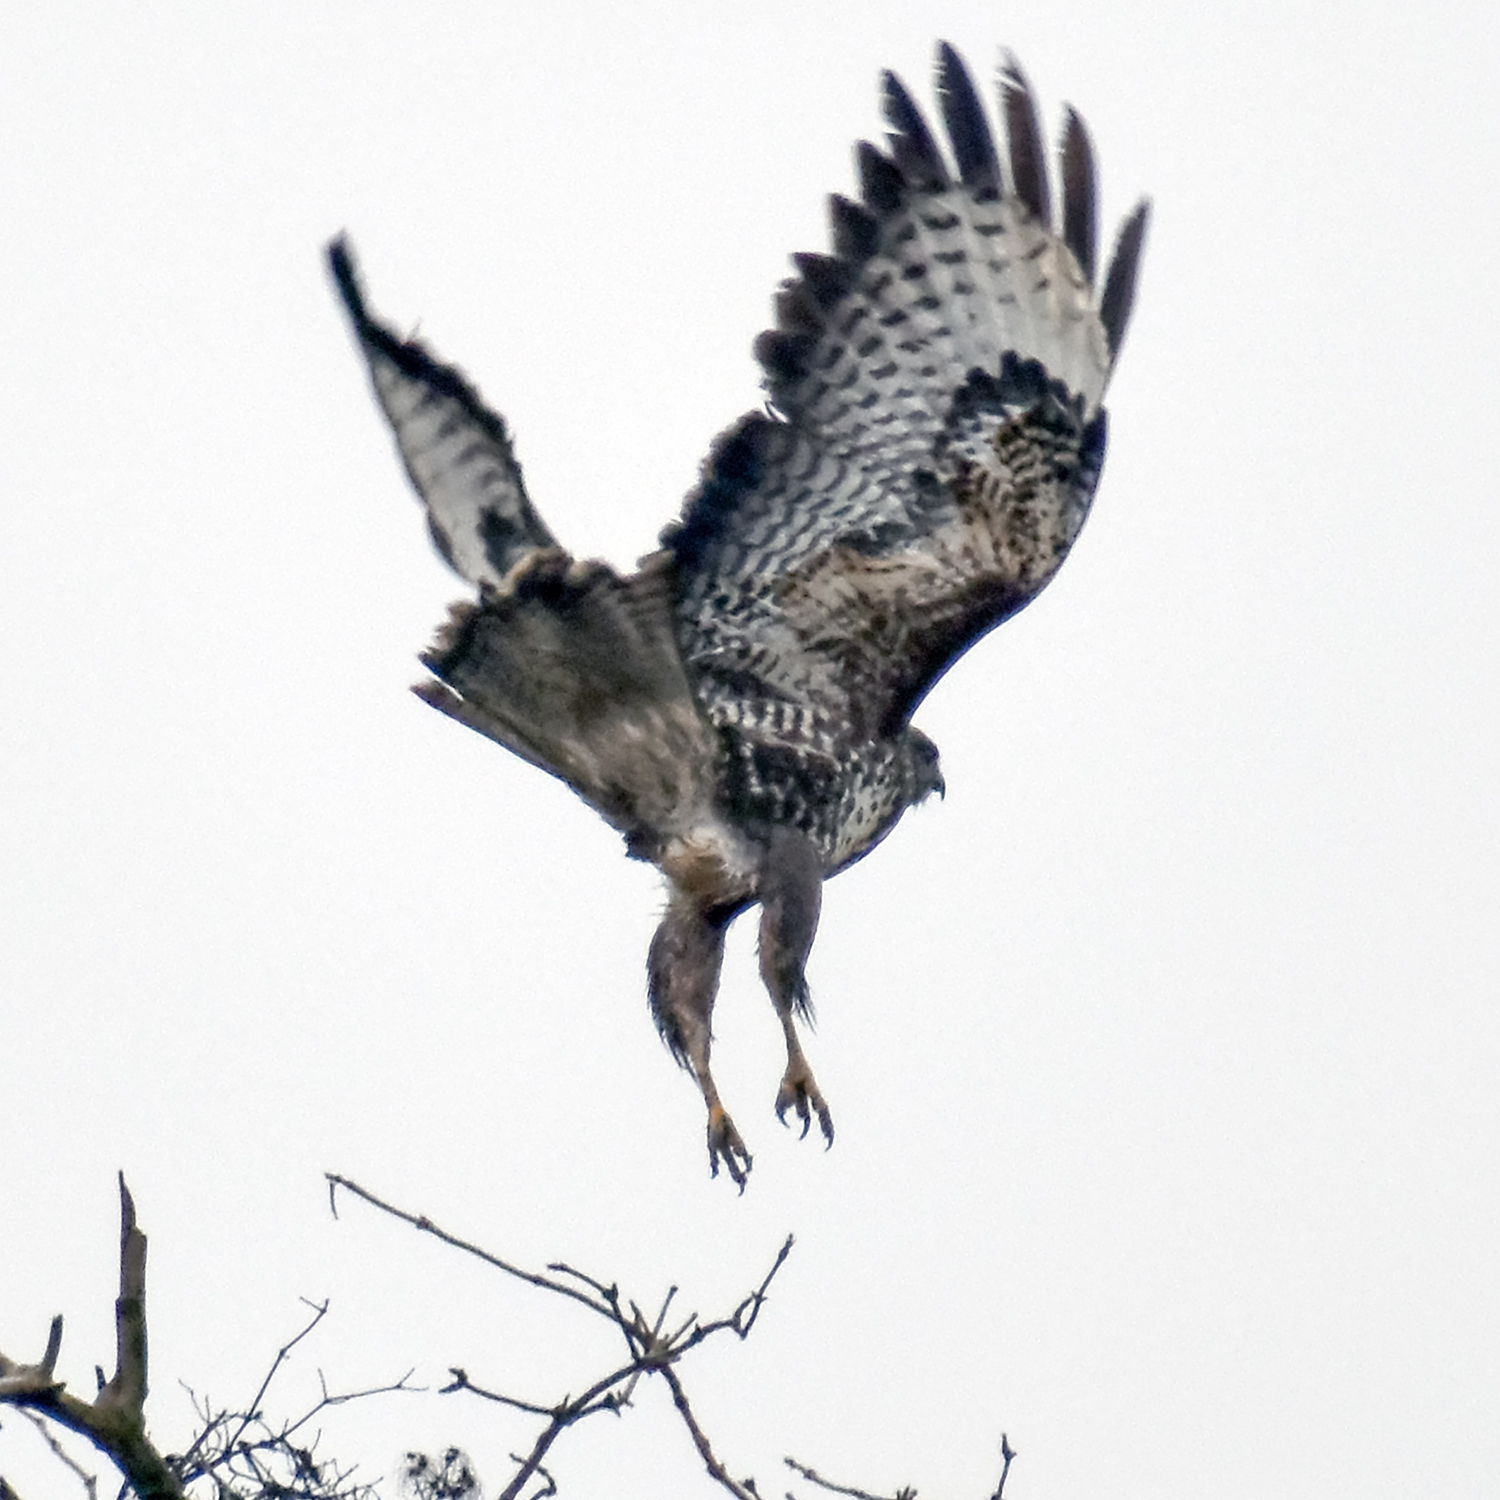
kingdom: Animalia
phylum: Chordata
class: Aves
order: Accipitriformes
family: Accipitridae
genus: Buteo
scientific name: Buteo buteo
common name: Common buzzard
